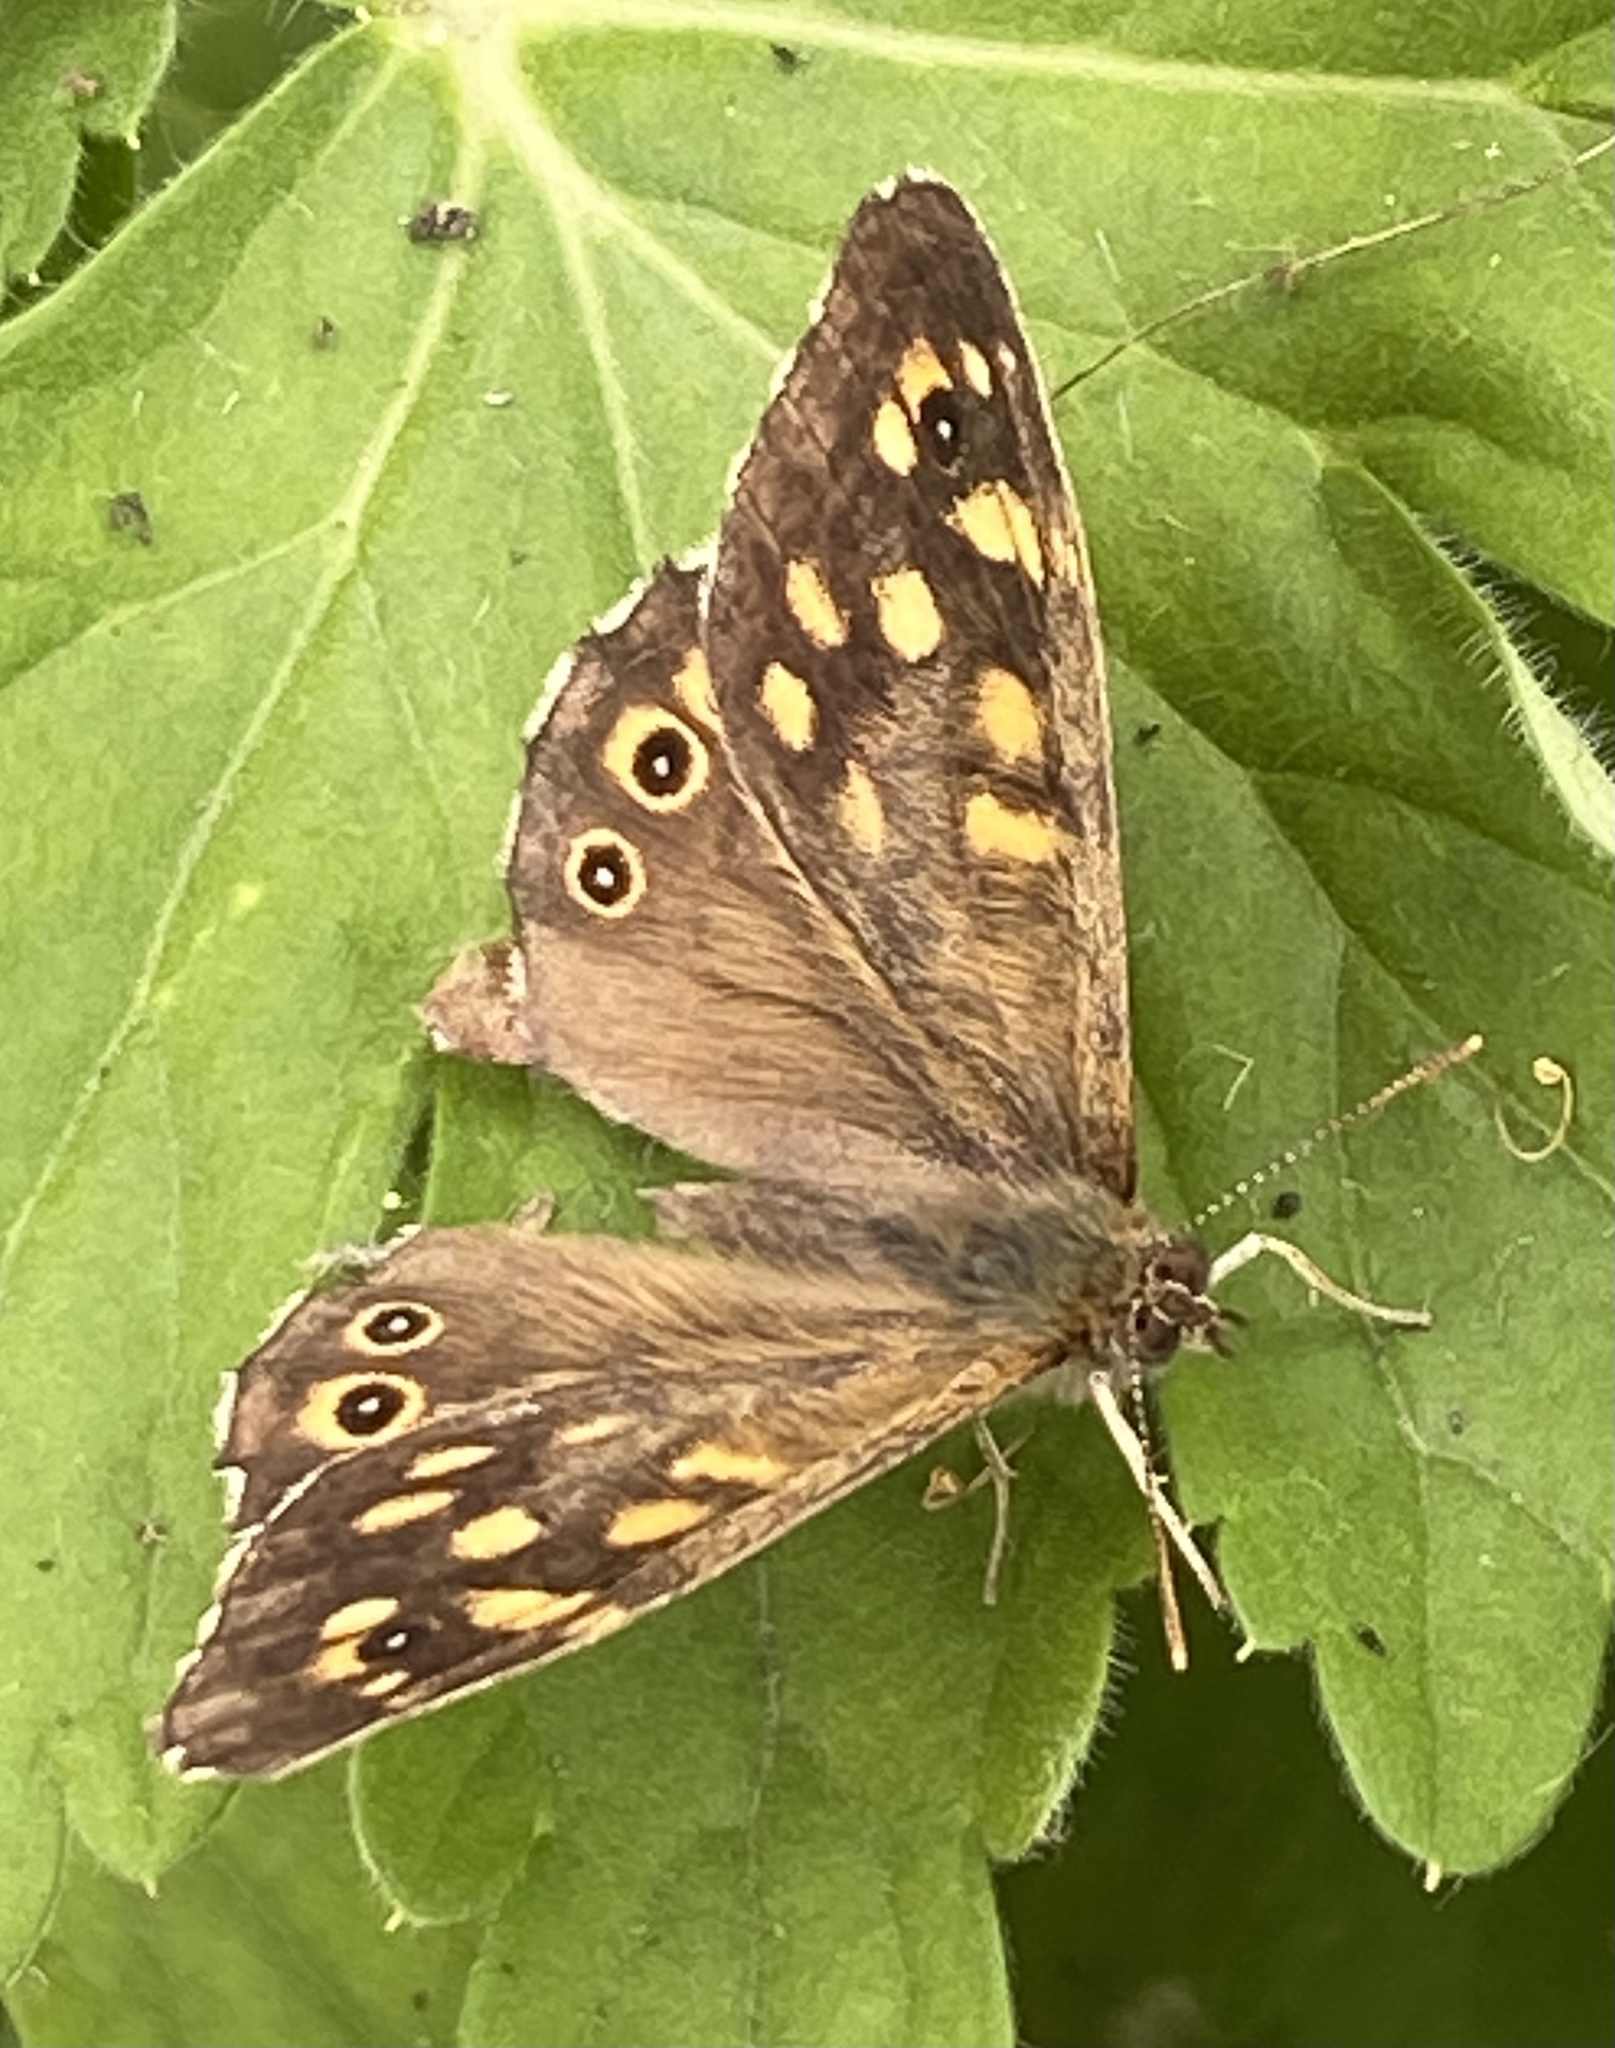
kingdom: Animalia
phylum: Arthropoda
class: Insecta
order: Lepidoptera
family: Nymphalidae
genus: Pararge
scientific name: Pararge aegeria
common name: Speckled wood
